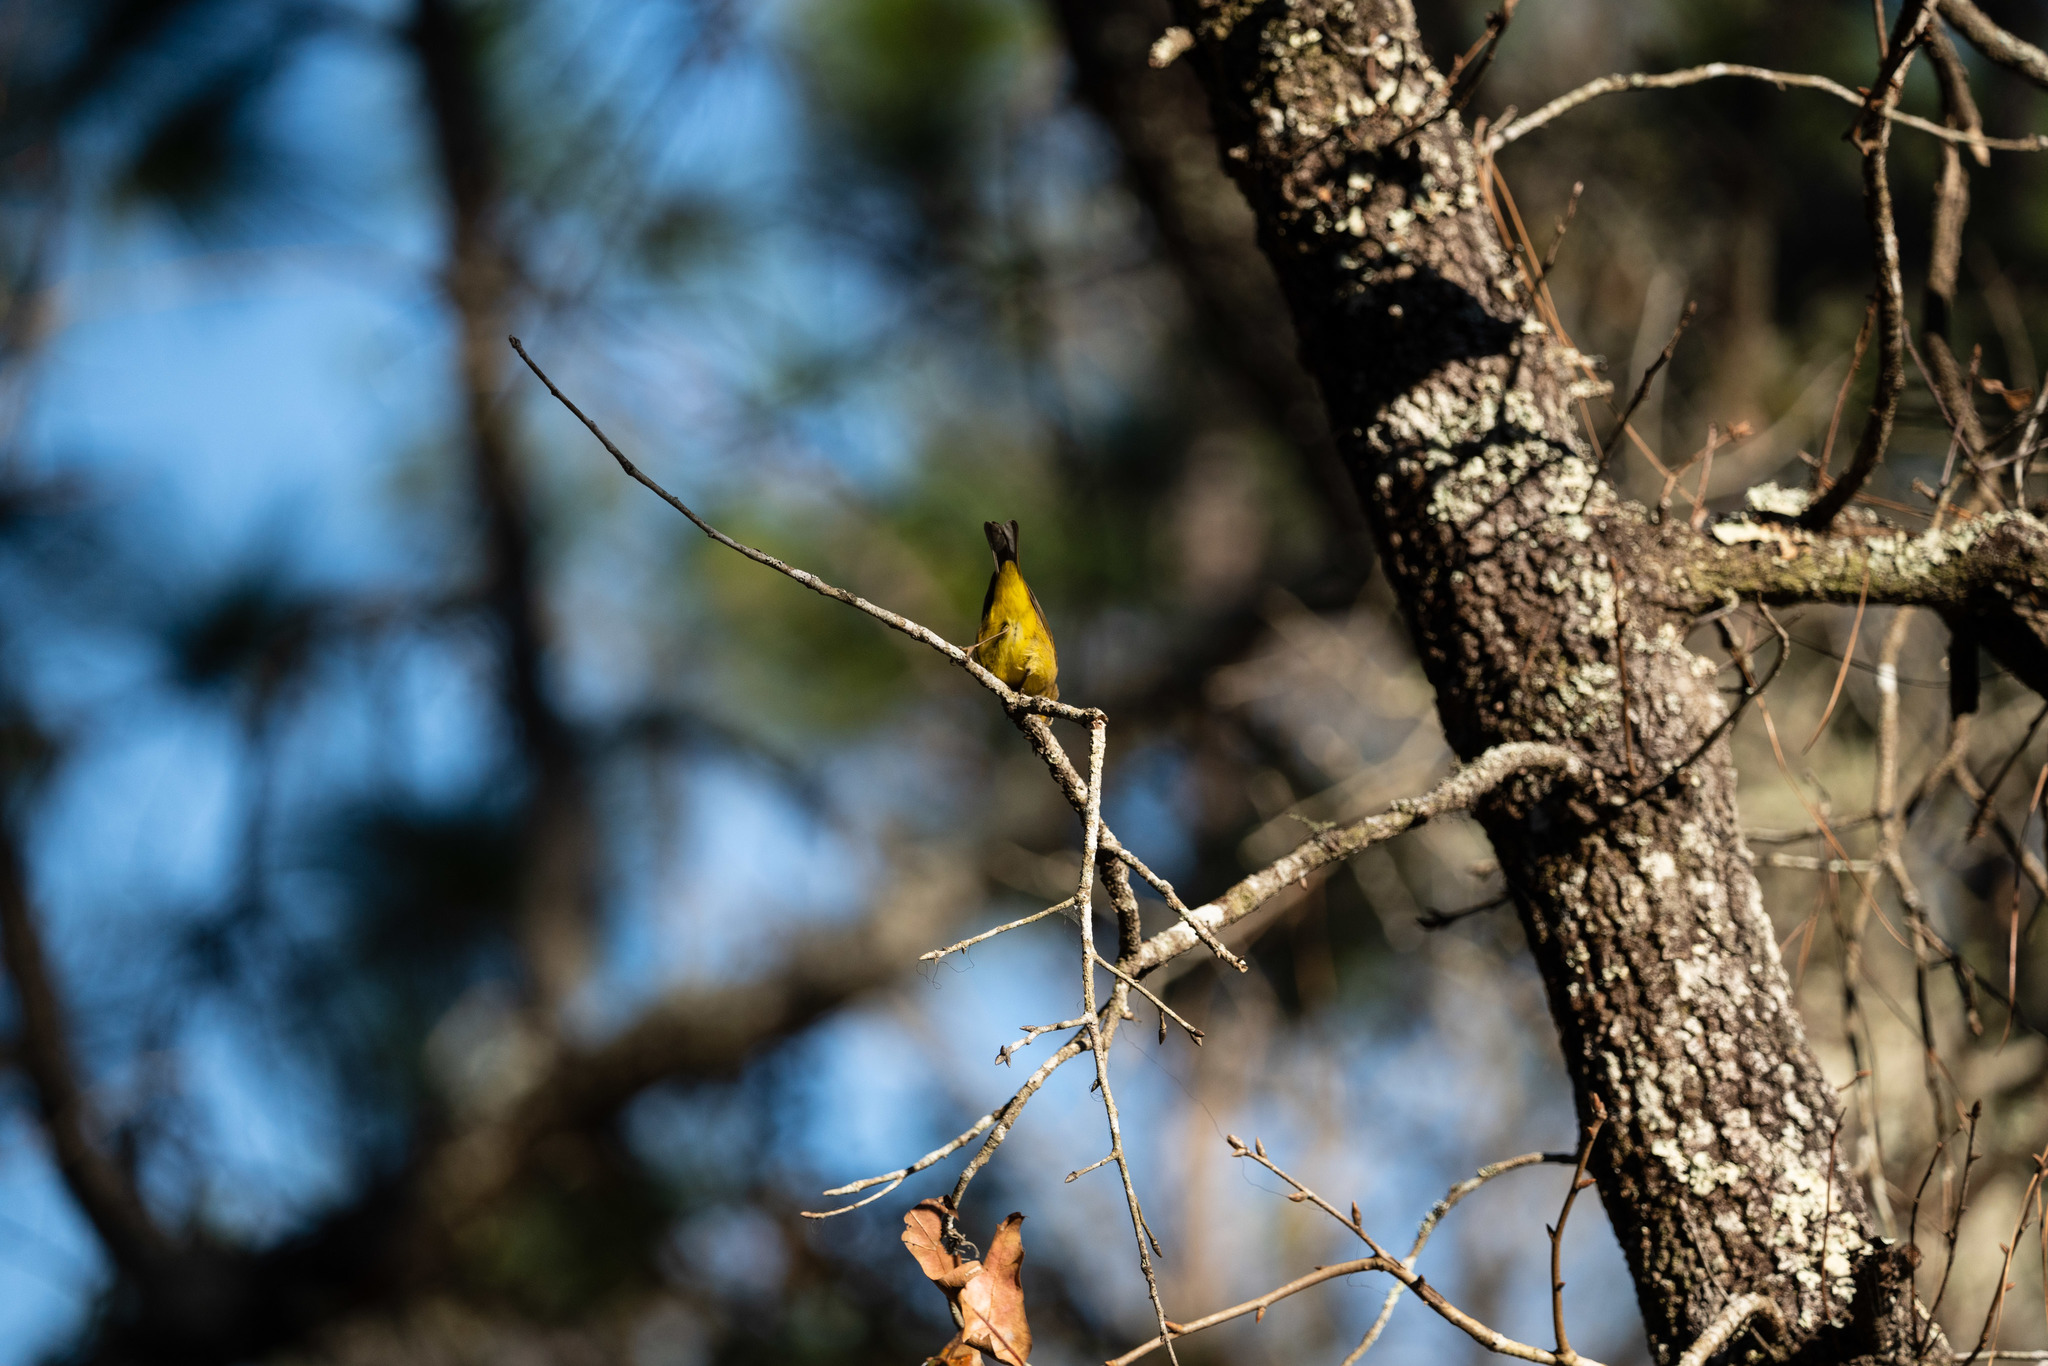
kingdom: Animalia
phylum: Chordata
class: Aves
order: Passeriformes
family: Parulidae
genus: Setophaga
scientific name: Setophaga palmarum
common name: Palm warbler
